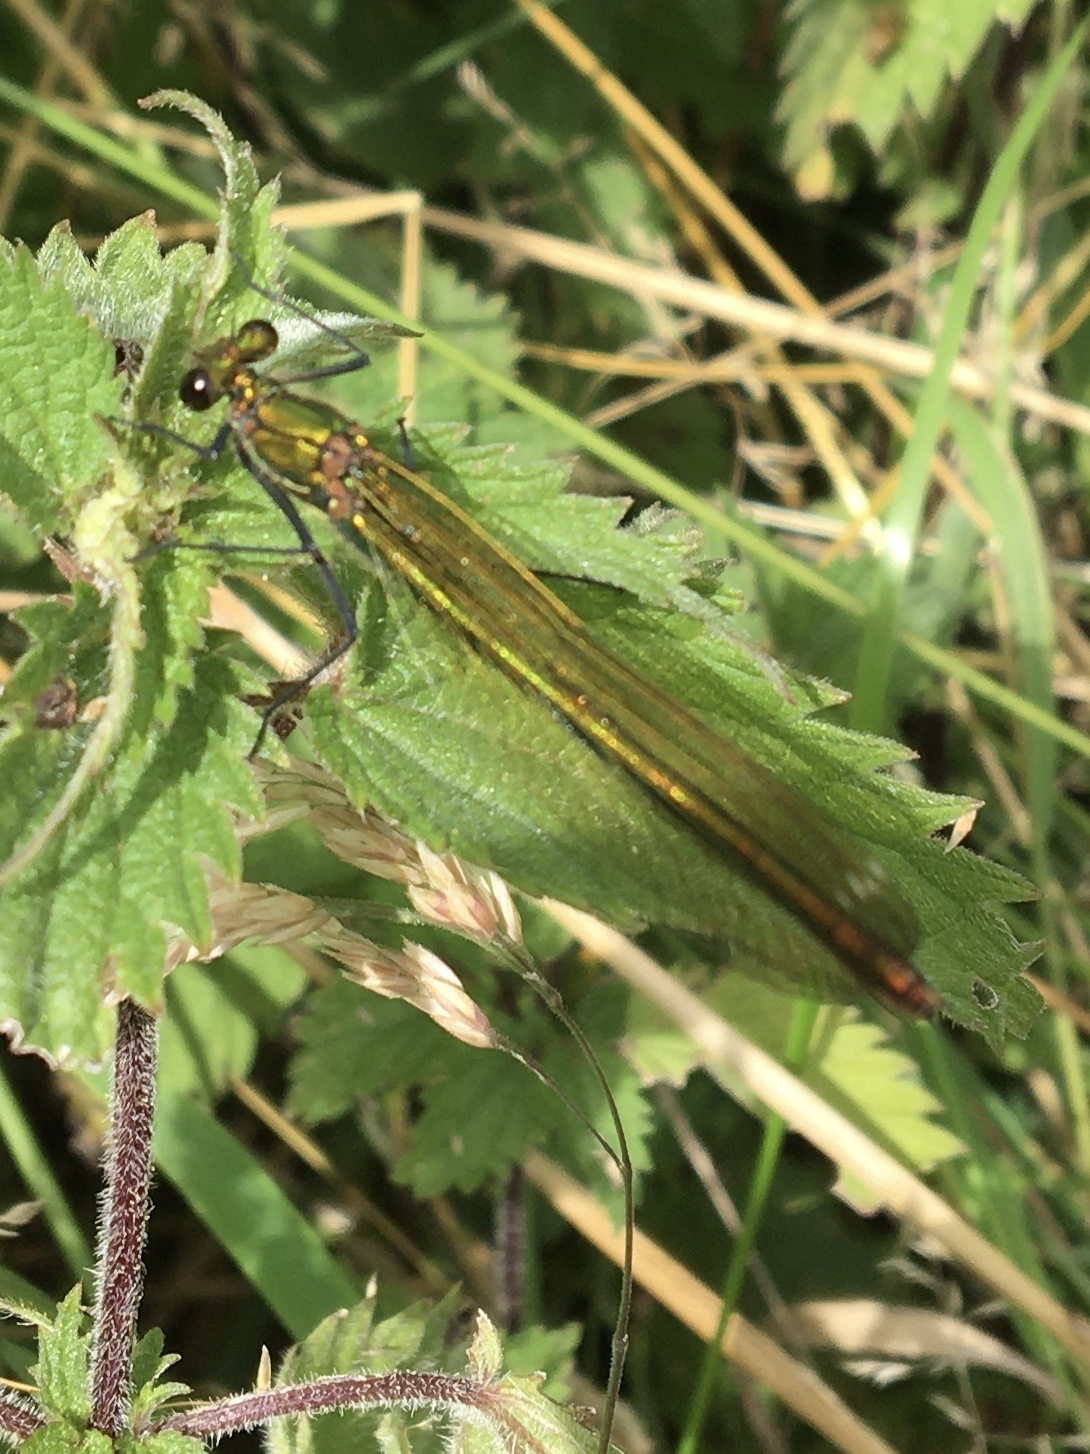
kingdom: Animalia
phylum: Arthropoda
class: Insecta
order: Odonata
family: Calopterygidae
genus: Calopteryx
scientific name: Calopteryx splendens
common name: Banded demoiselle
